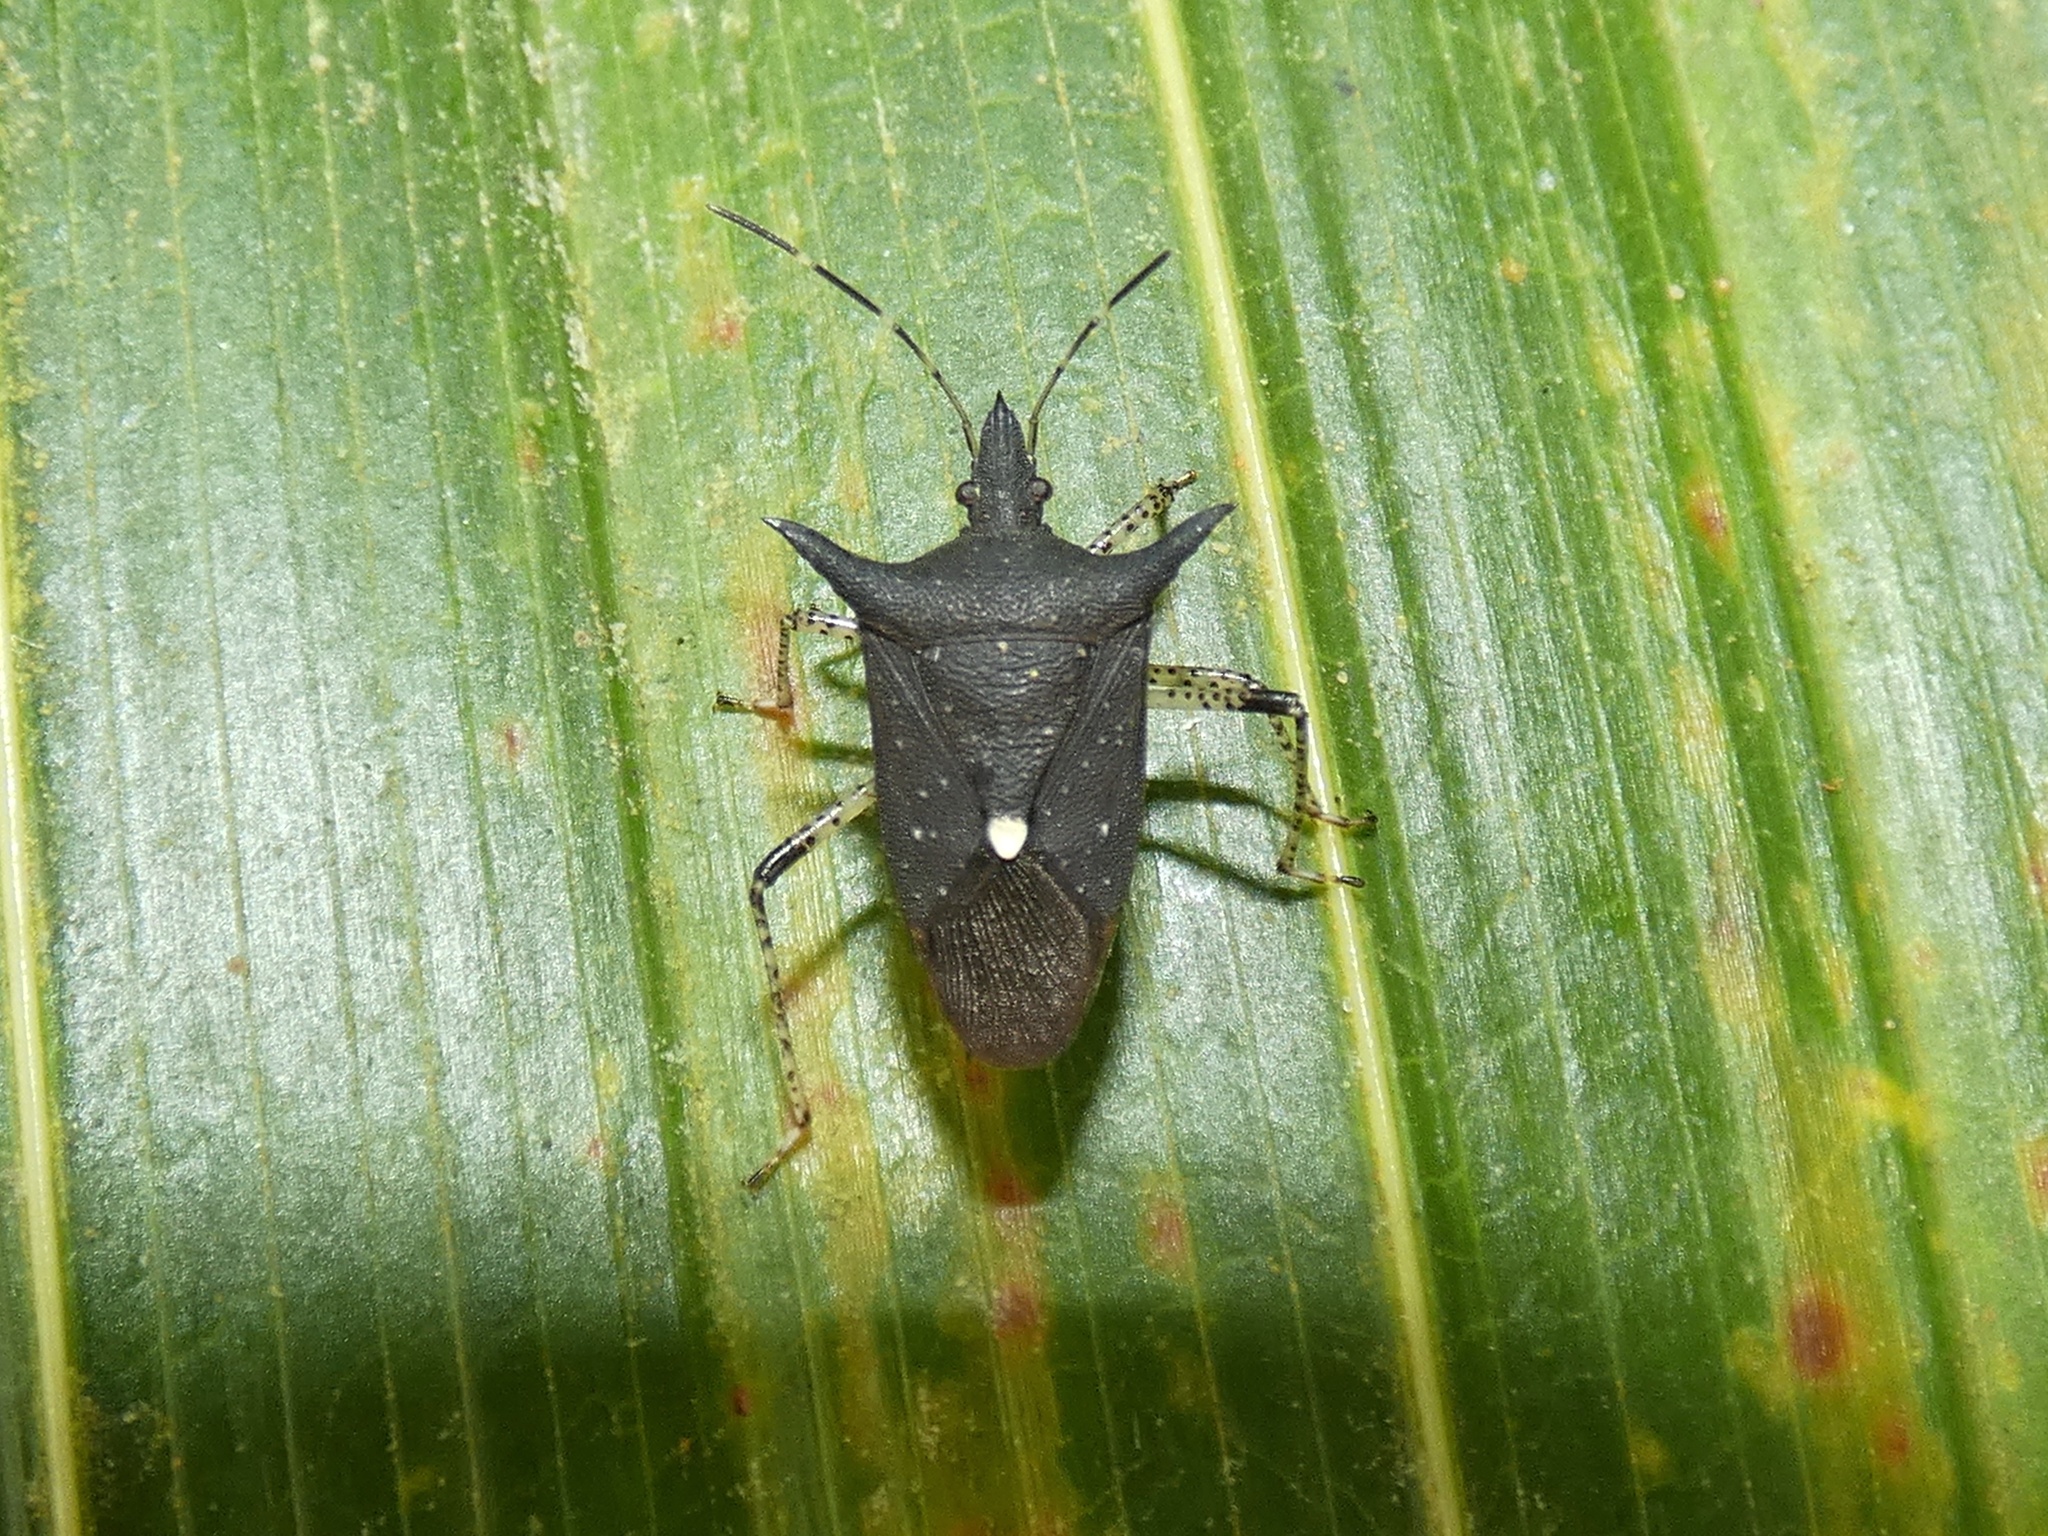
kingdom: Animalia
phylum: Arthropoda
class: Insecta
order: Hemiptera
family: Pentatomidae
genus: Proxys
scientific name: Proxys victor
